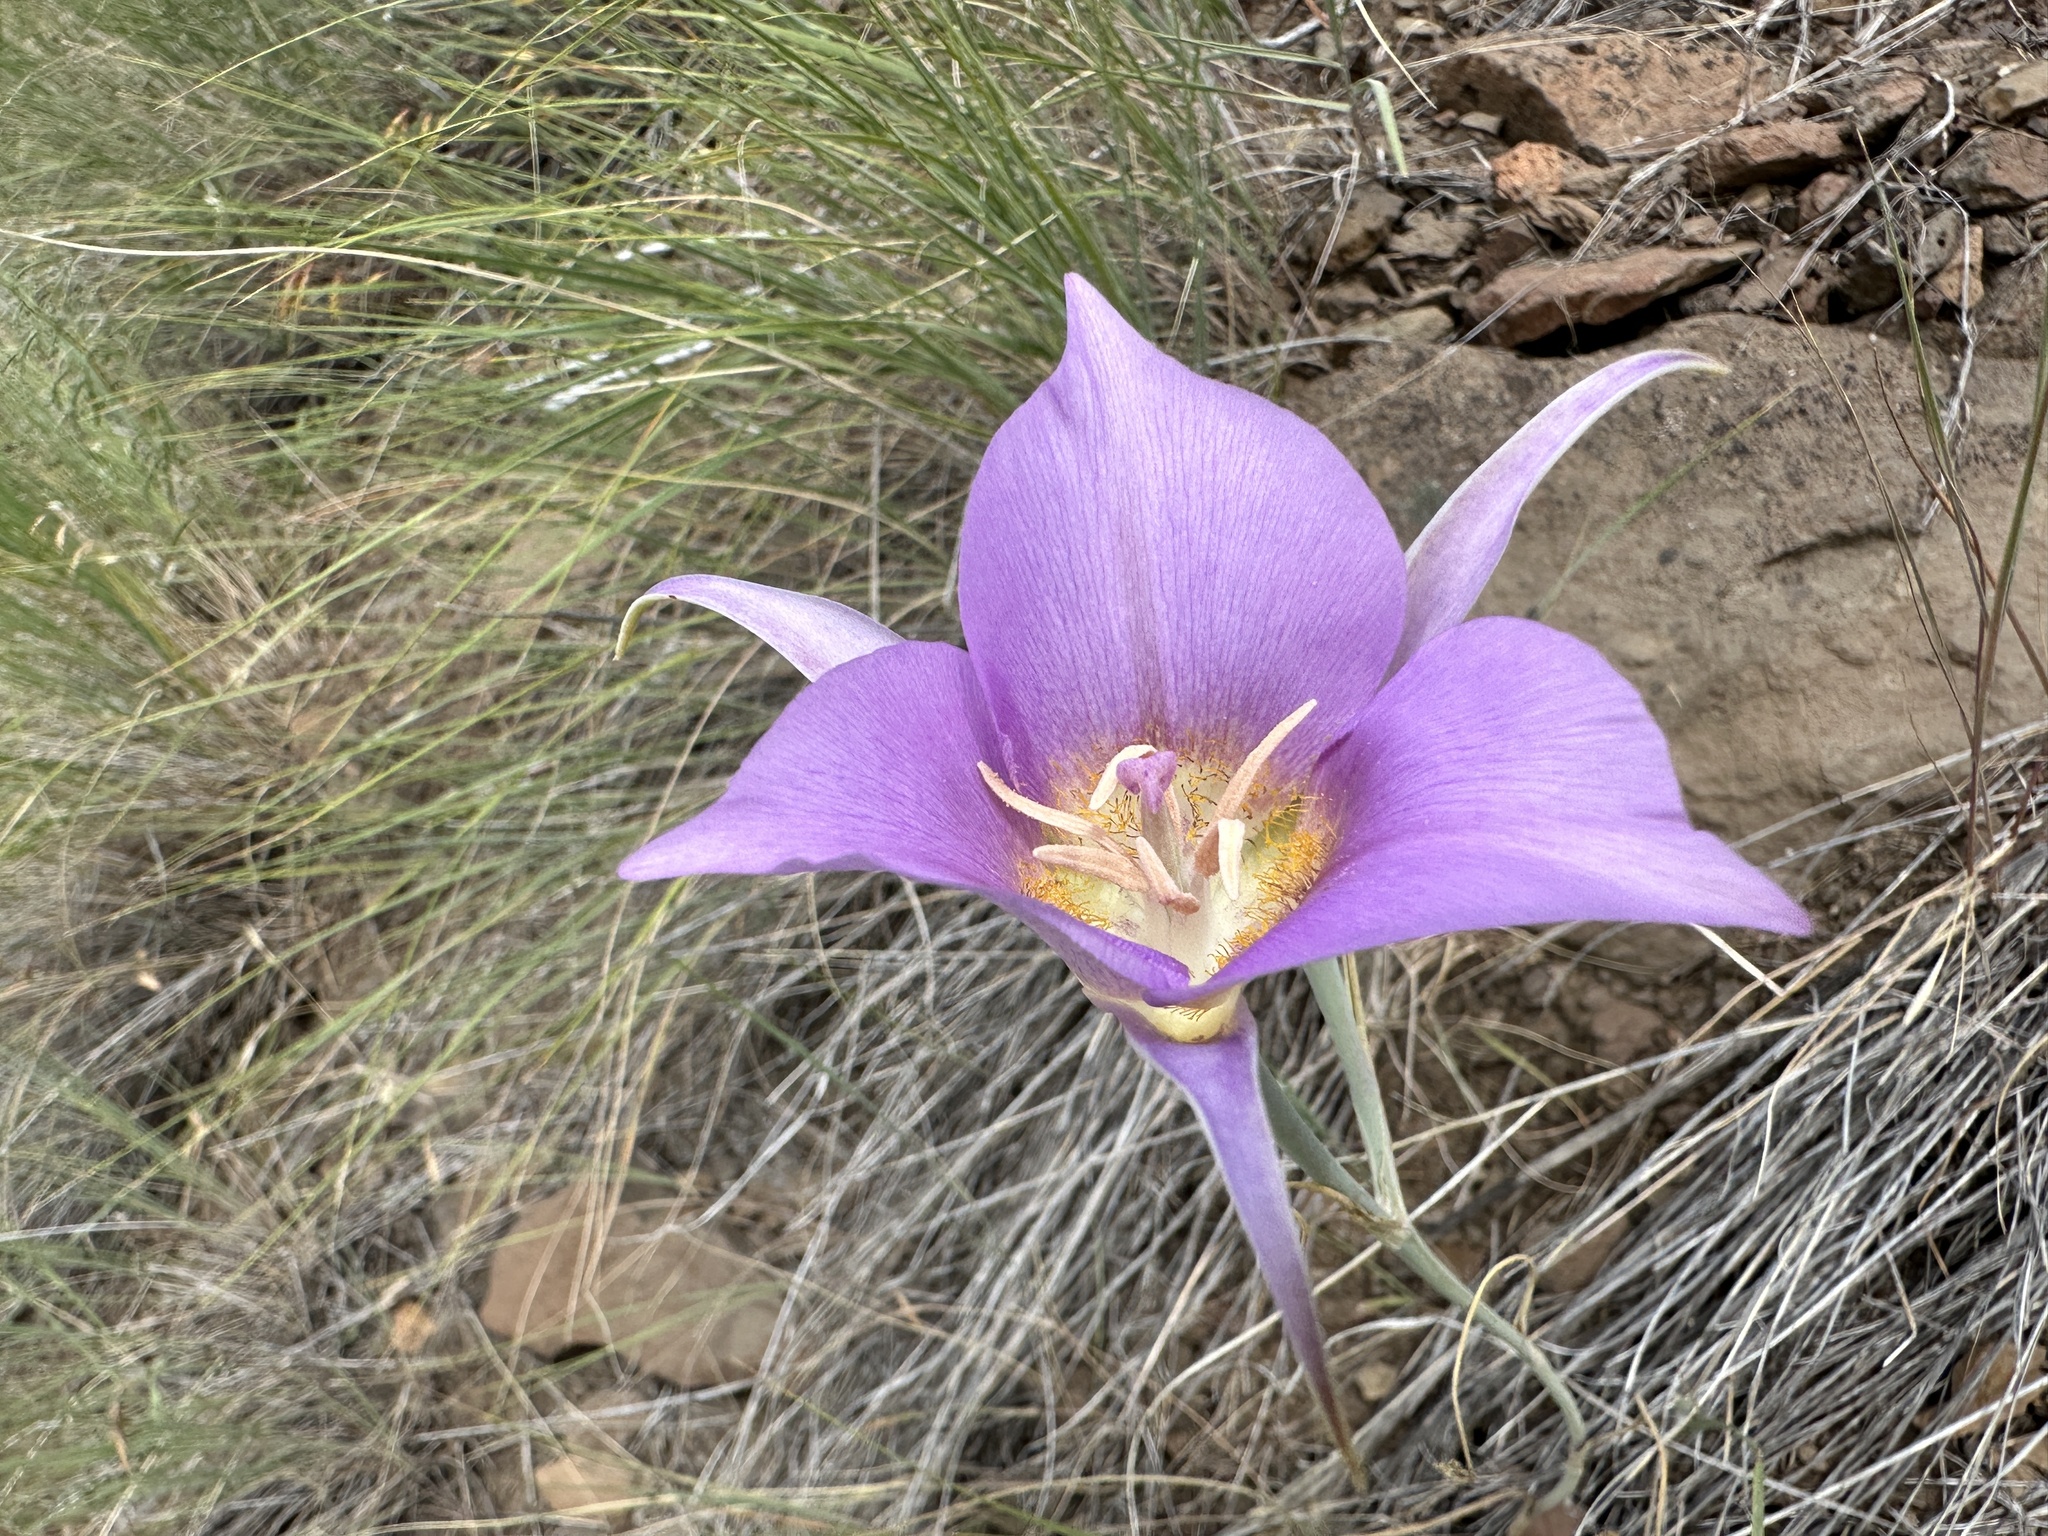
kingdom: Plantae
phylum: Tracheophyta
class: Liliopsida
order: Liliales
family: Liliaceae
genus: Calochortus
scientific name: Calochortus macrocarpus
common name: Green-band mariposa lily
